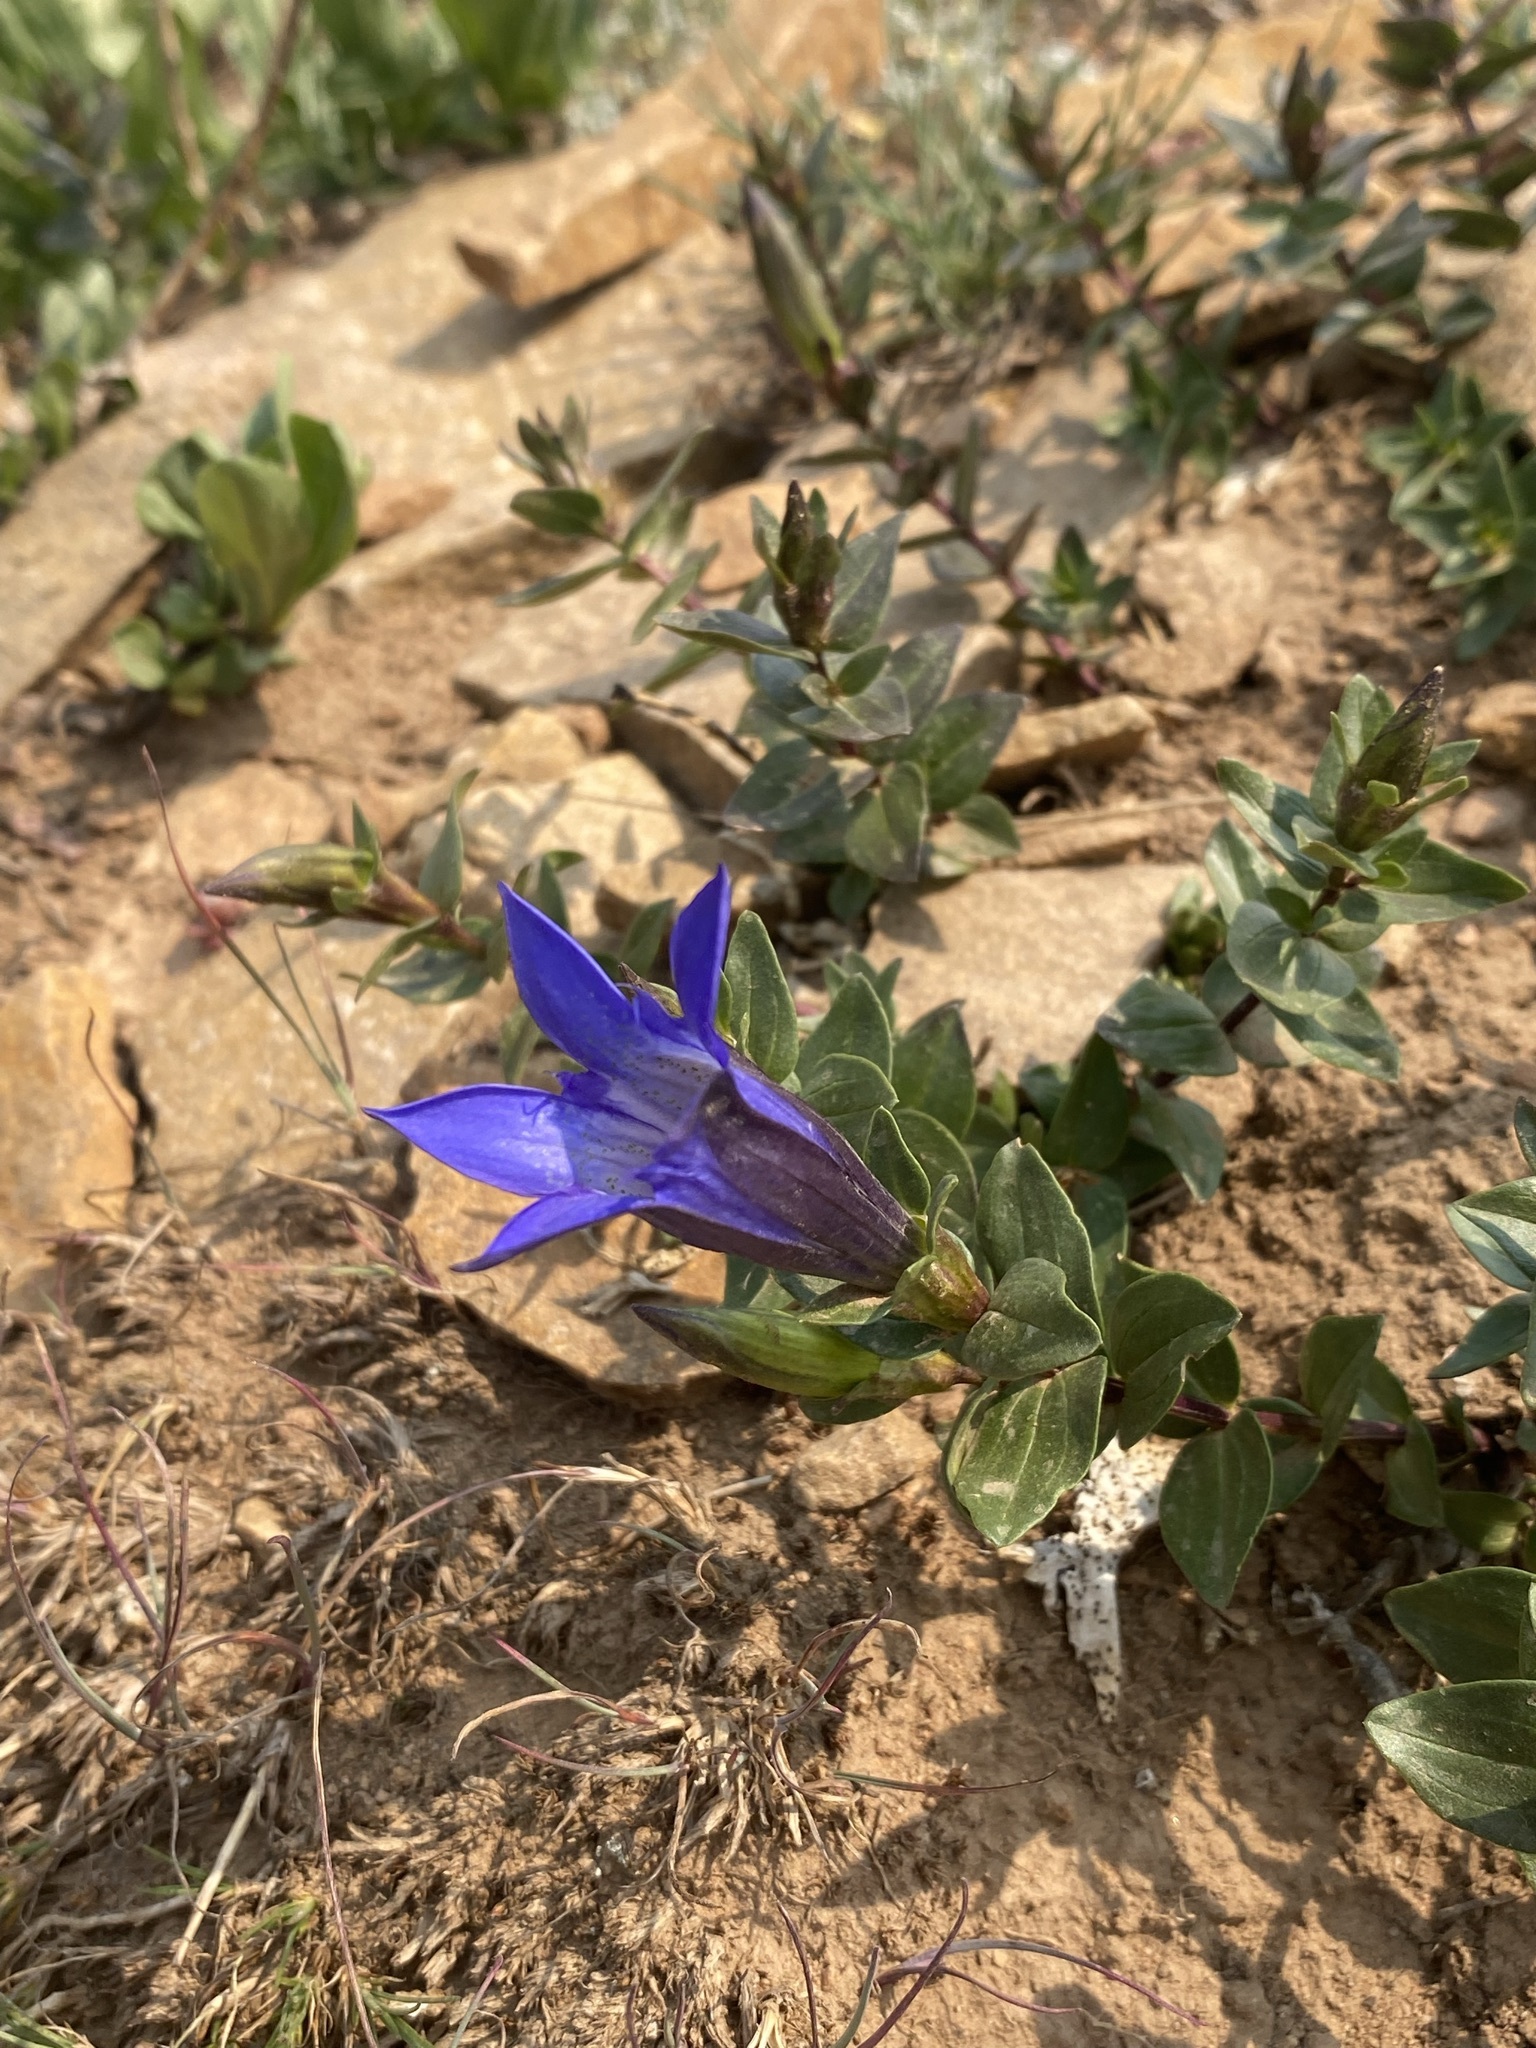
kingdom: Plantae
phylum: Tracheophyta
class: Magnoliopsida
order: Gentianales
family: Gentianaceae
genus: Gentiana
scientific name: Gentiana calycosa
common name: Rainier pleated gentian
